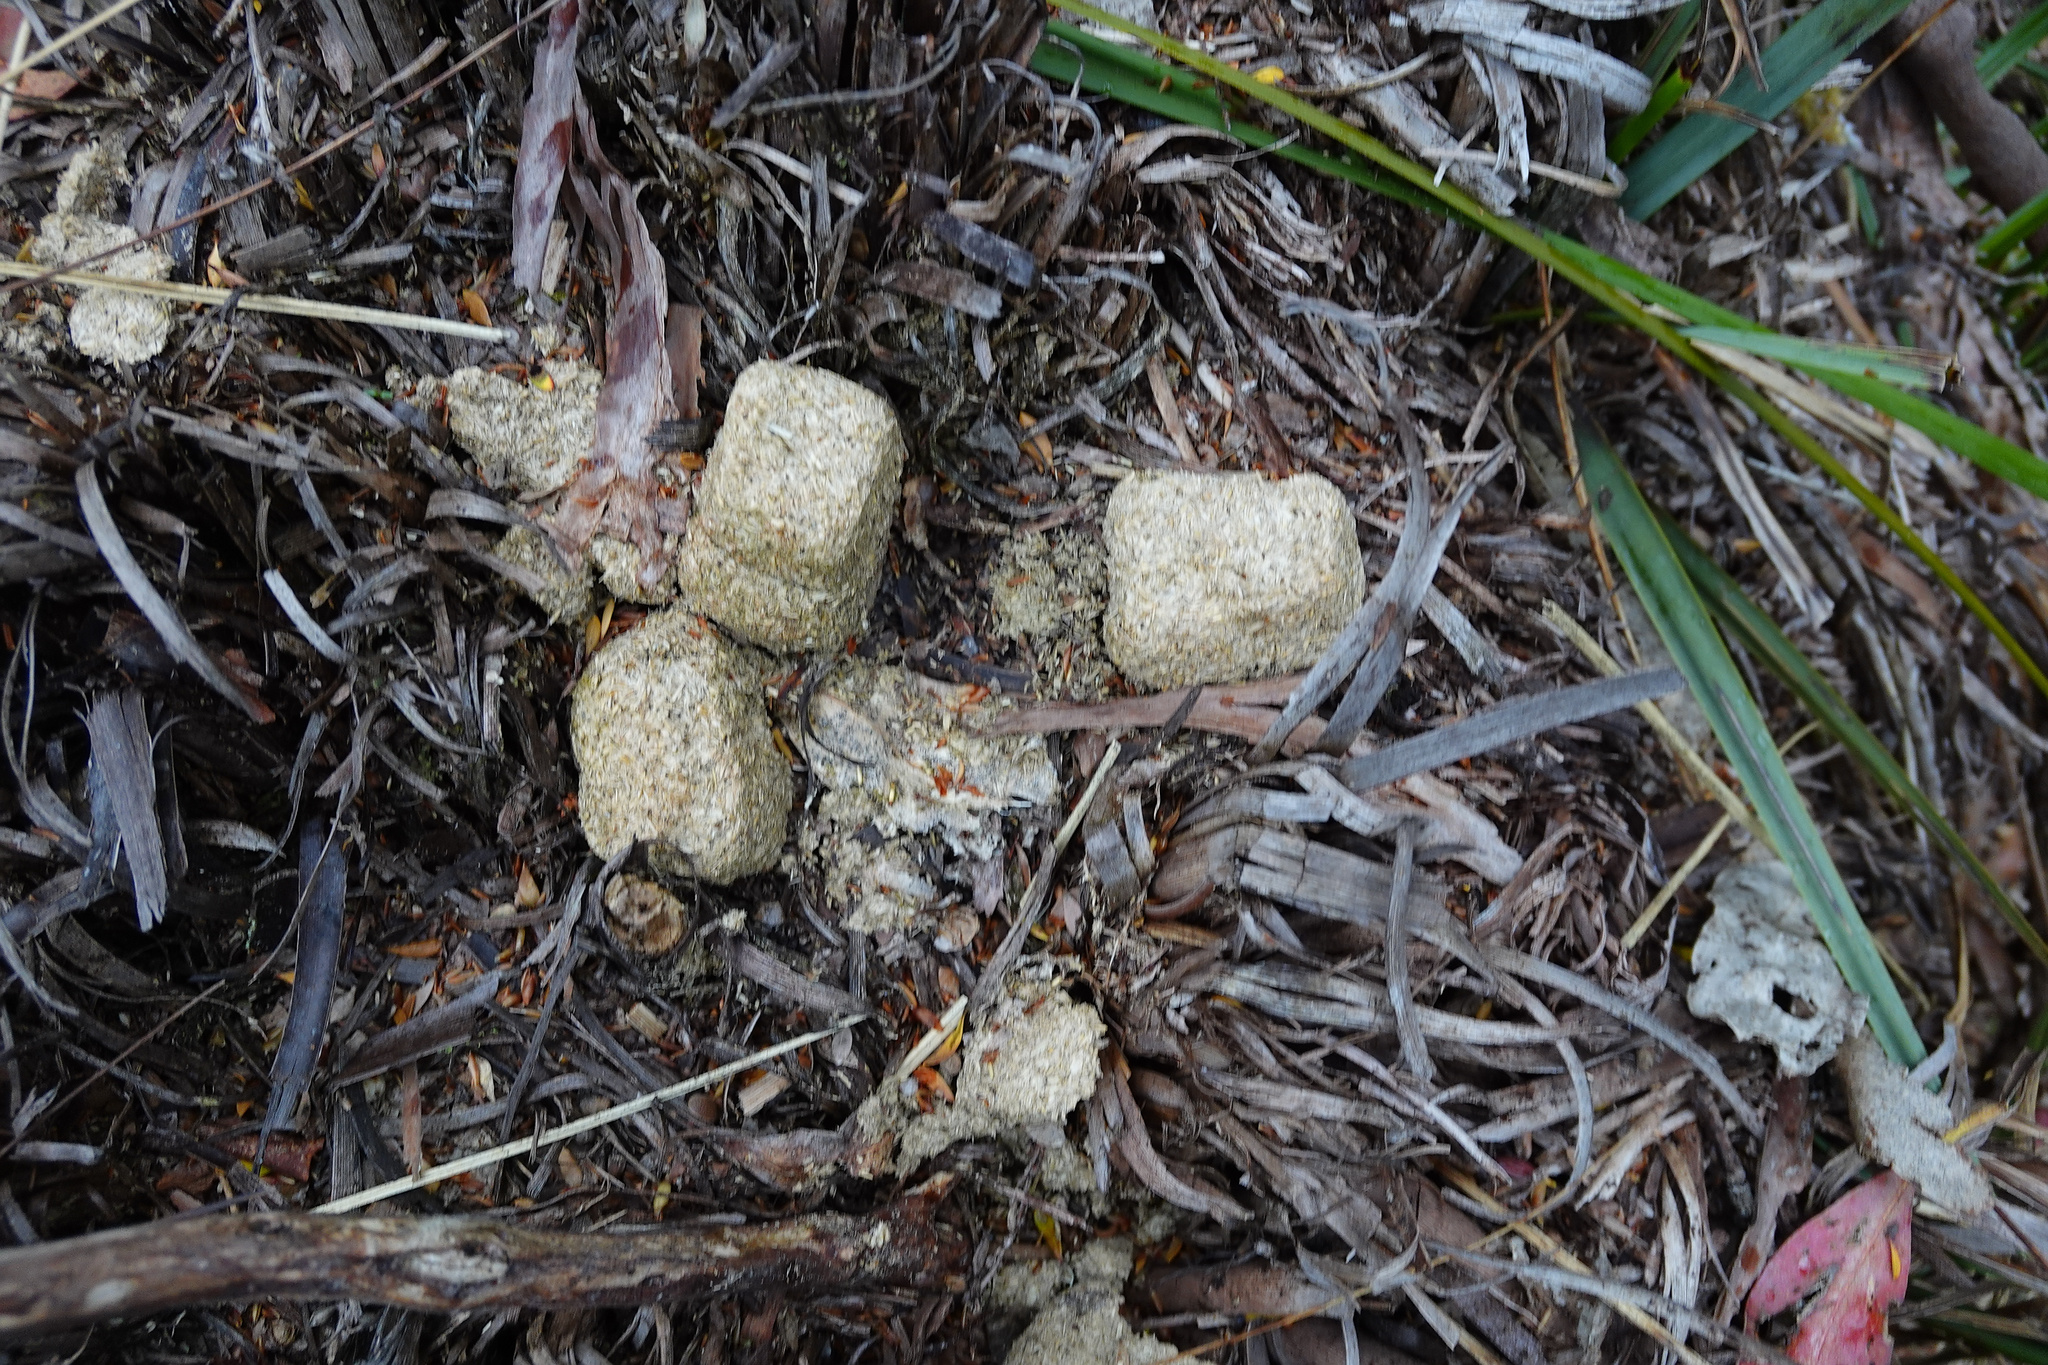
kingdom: Animalia
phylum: Chordata
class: Mammalia
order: Diprotodontia
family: Vombatidae
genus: Vombatus
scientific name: Vombatus ursinus
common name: Common wombat
